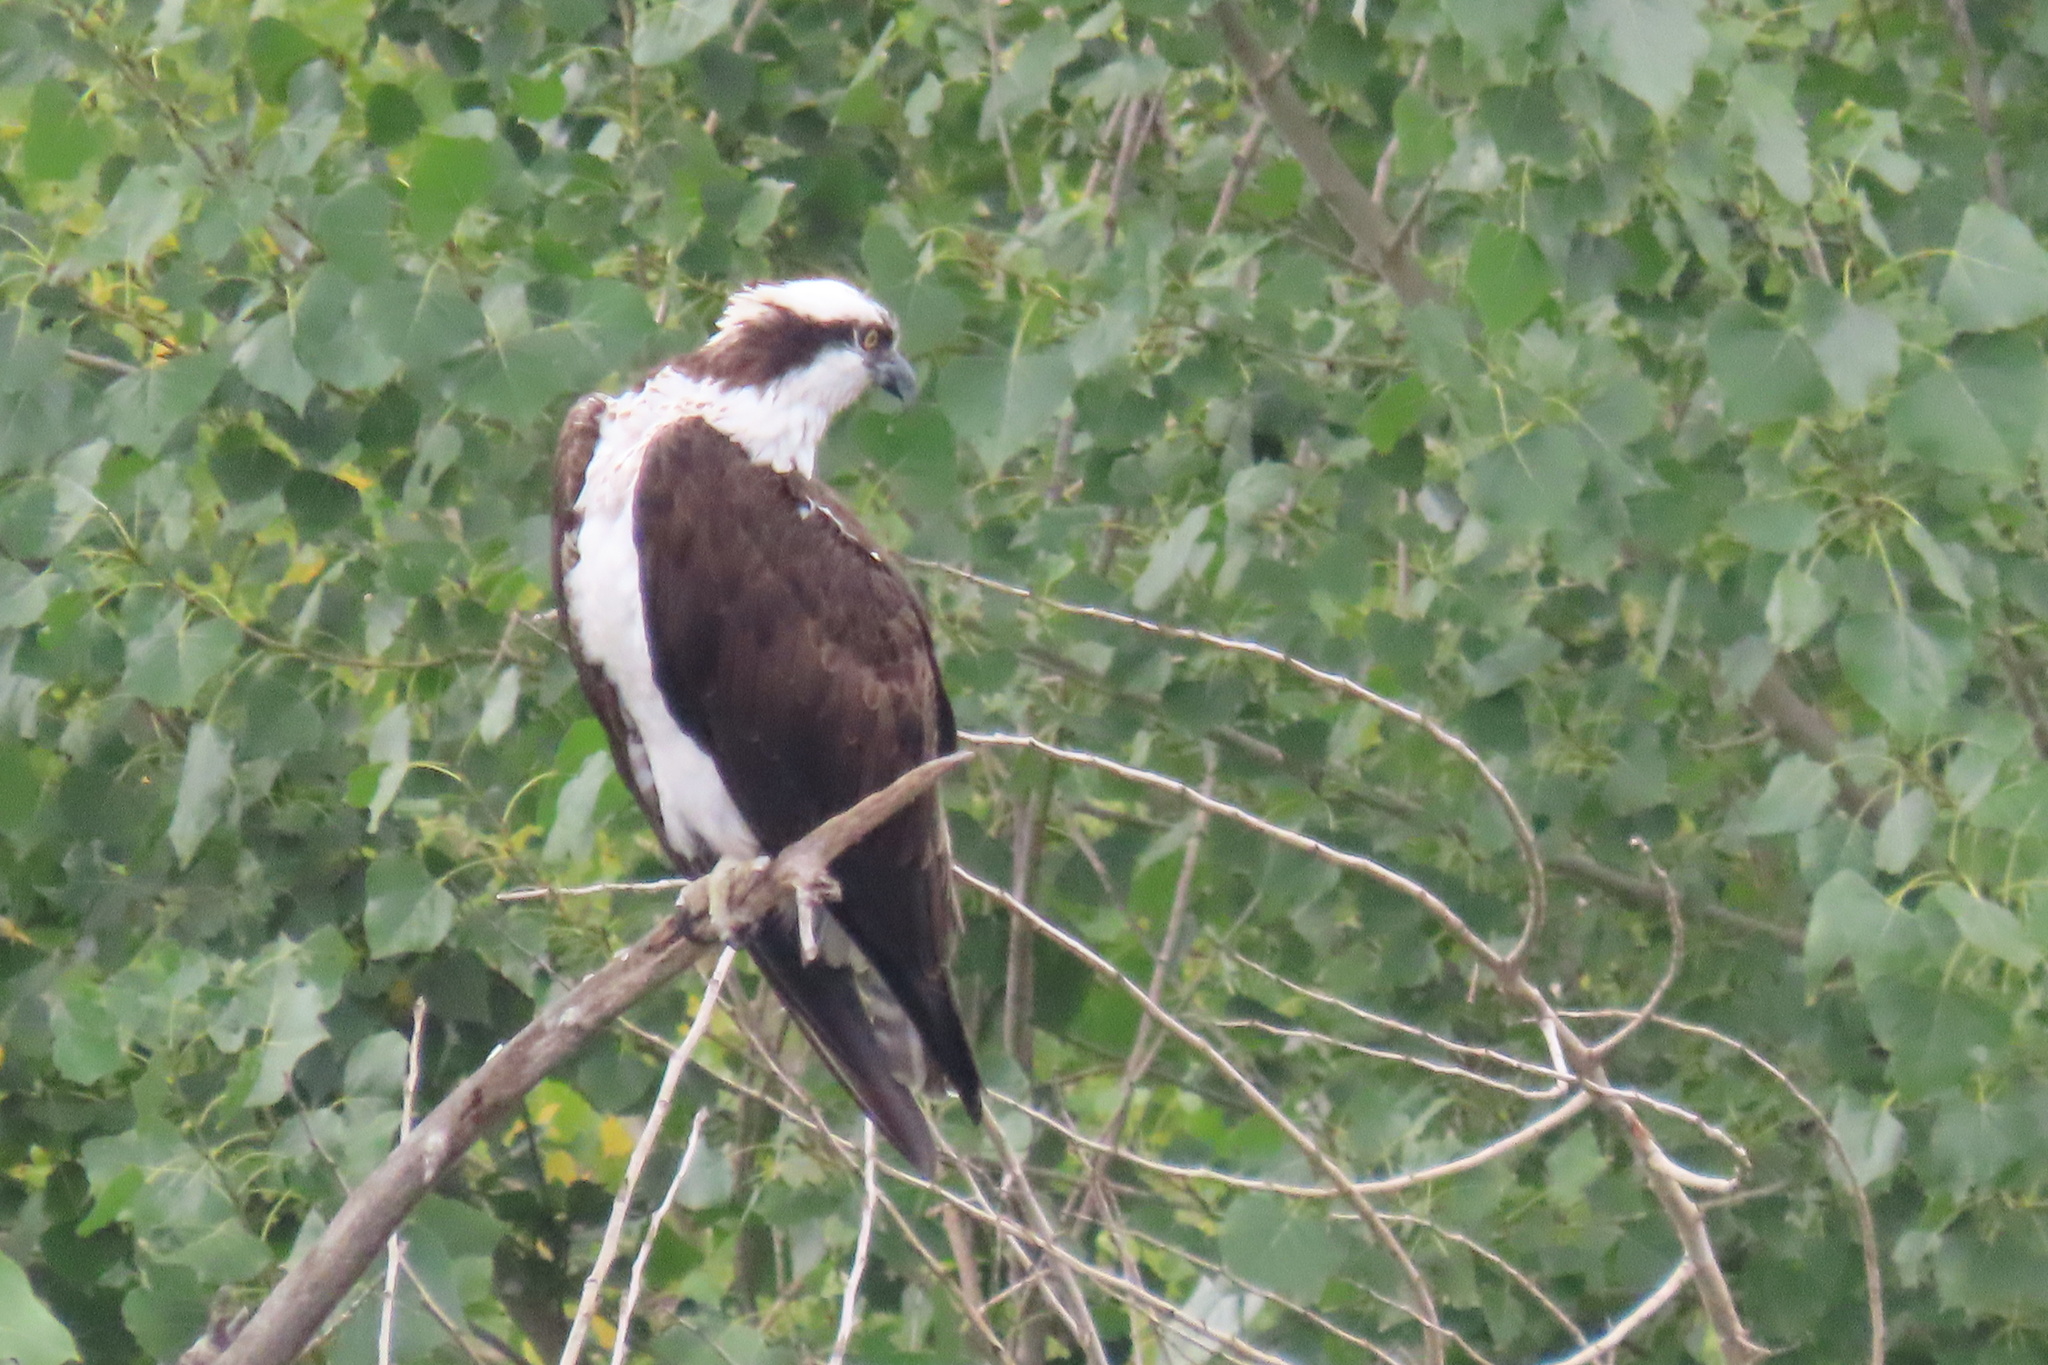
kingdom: Animalia
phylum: Chordata
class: Aves
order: Accipitriformes
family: Pandionidae
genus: Pandion
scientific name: Pandion haliaetus
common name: Osprey
